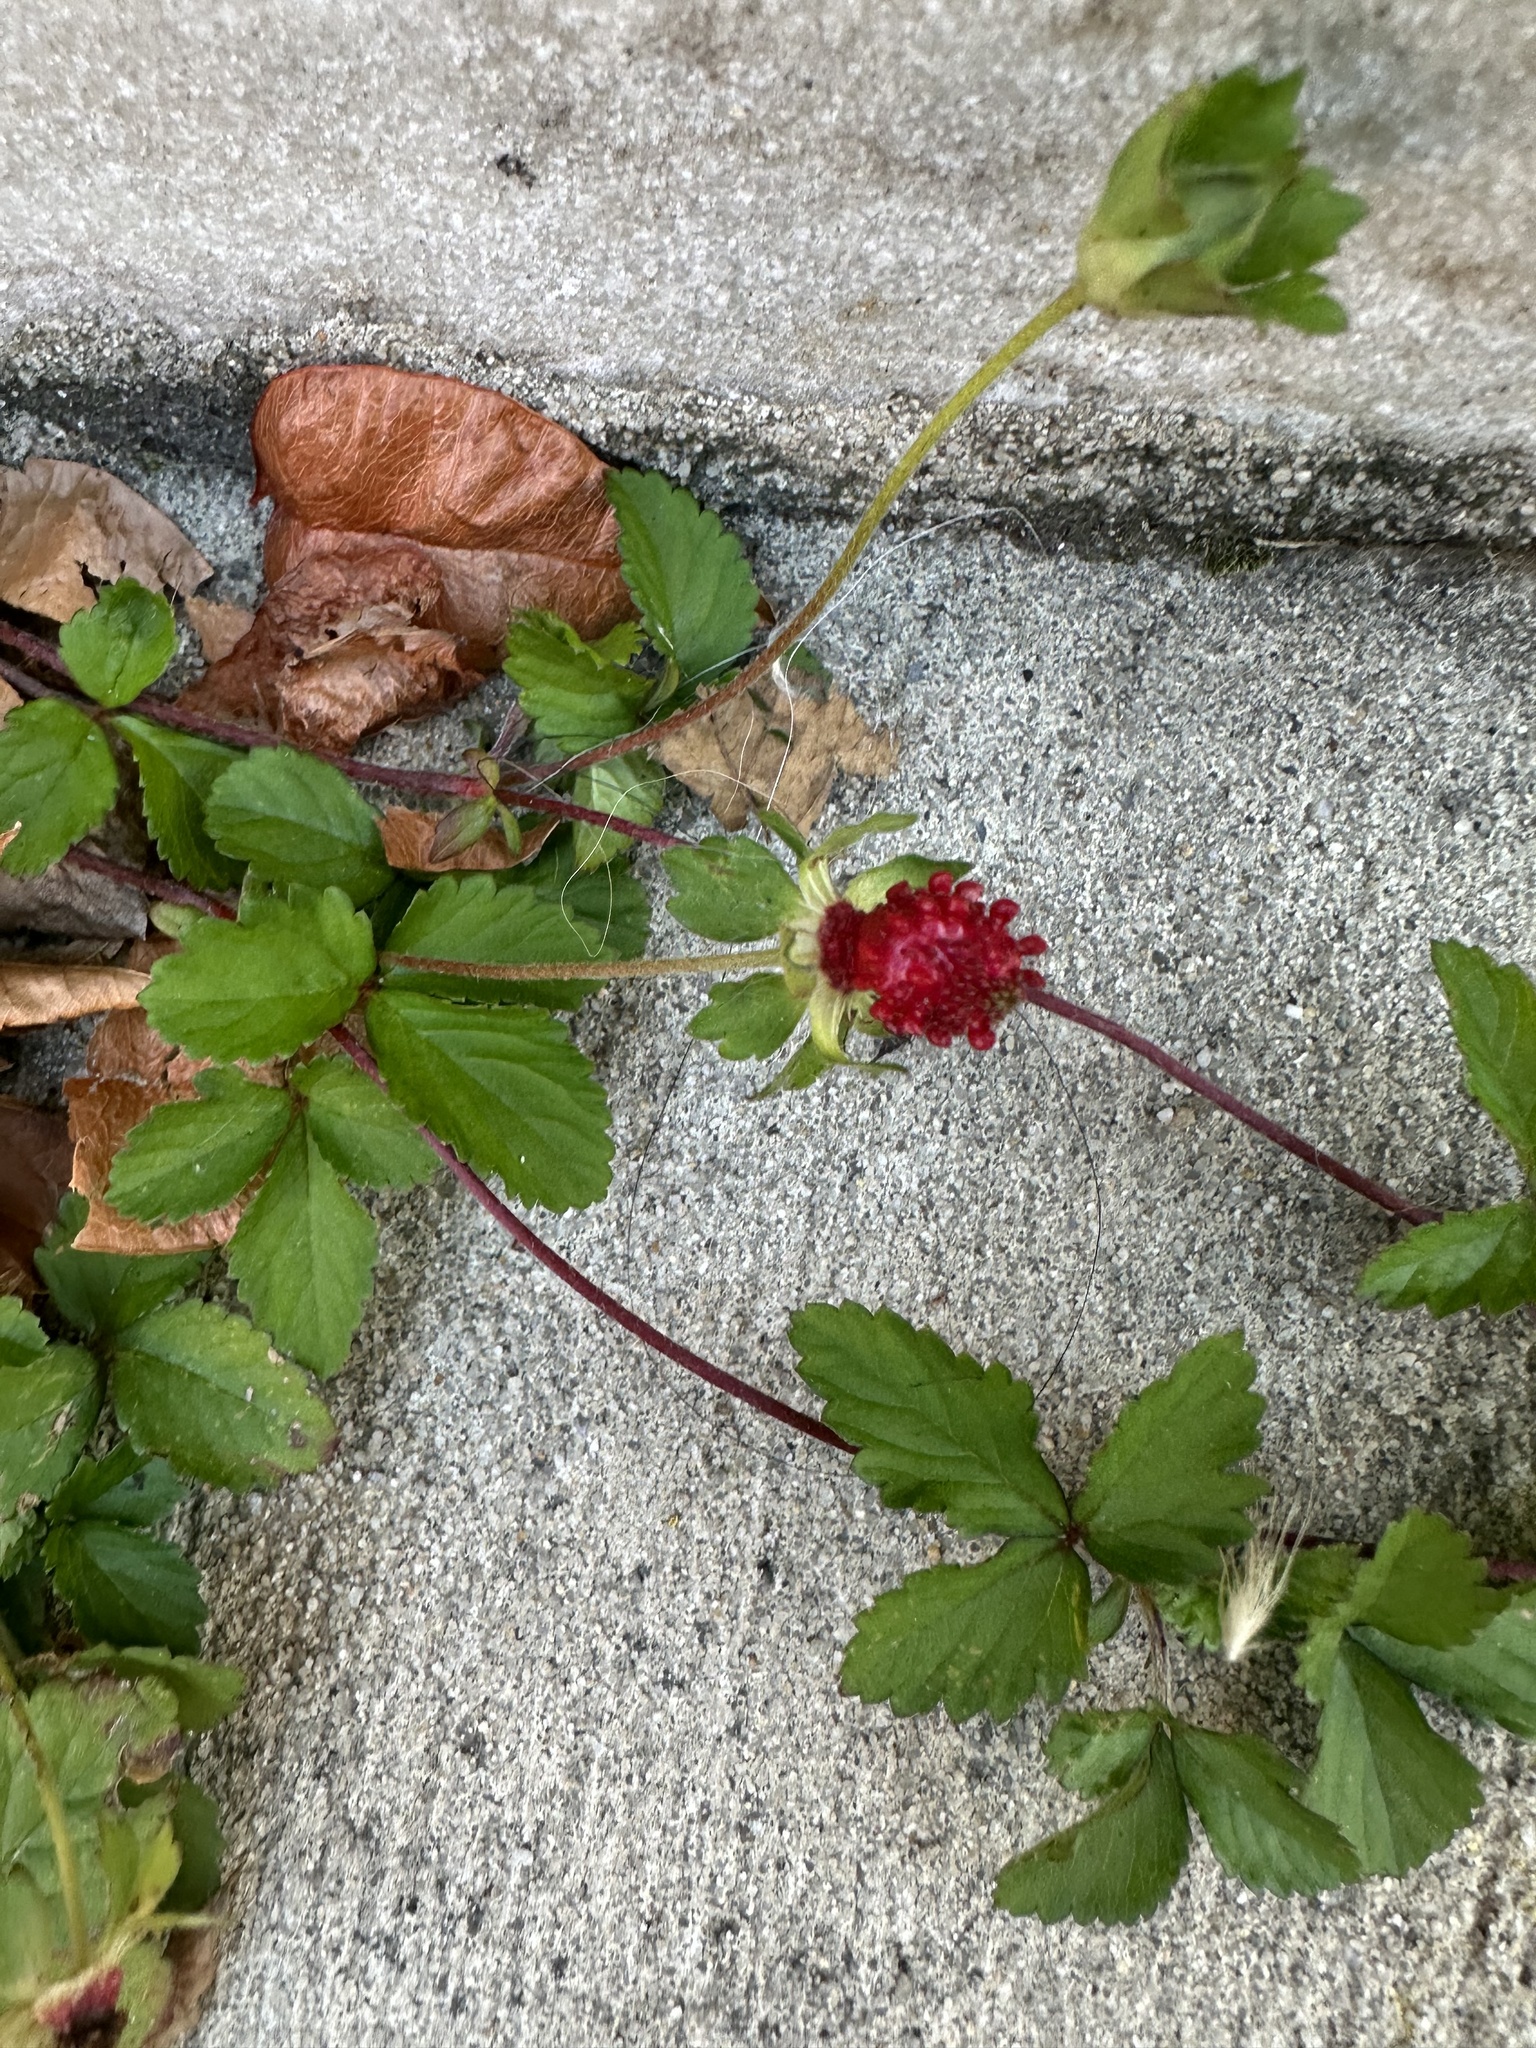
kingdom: Plantae
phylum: Tracheophyta
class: Magnoliopsida
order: Rosales
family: Rosaceae
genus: Potentilla
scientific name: Potentilla indica
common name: Yellow-flowered strawberry
